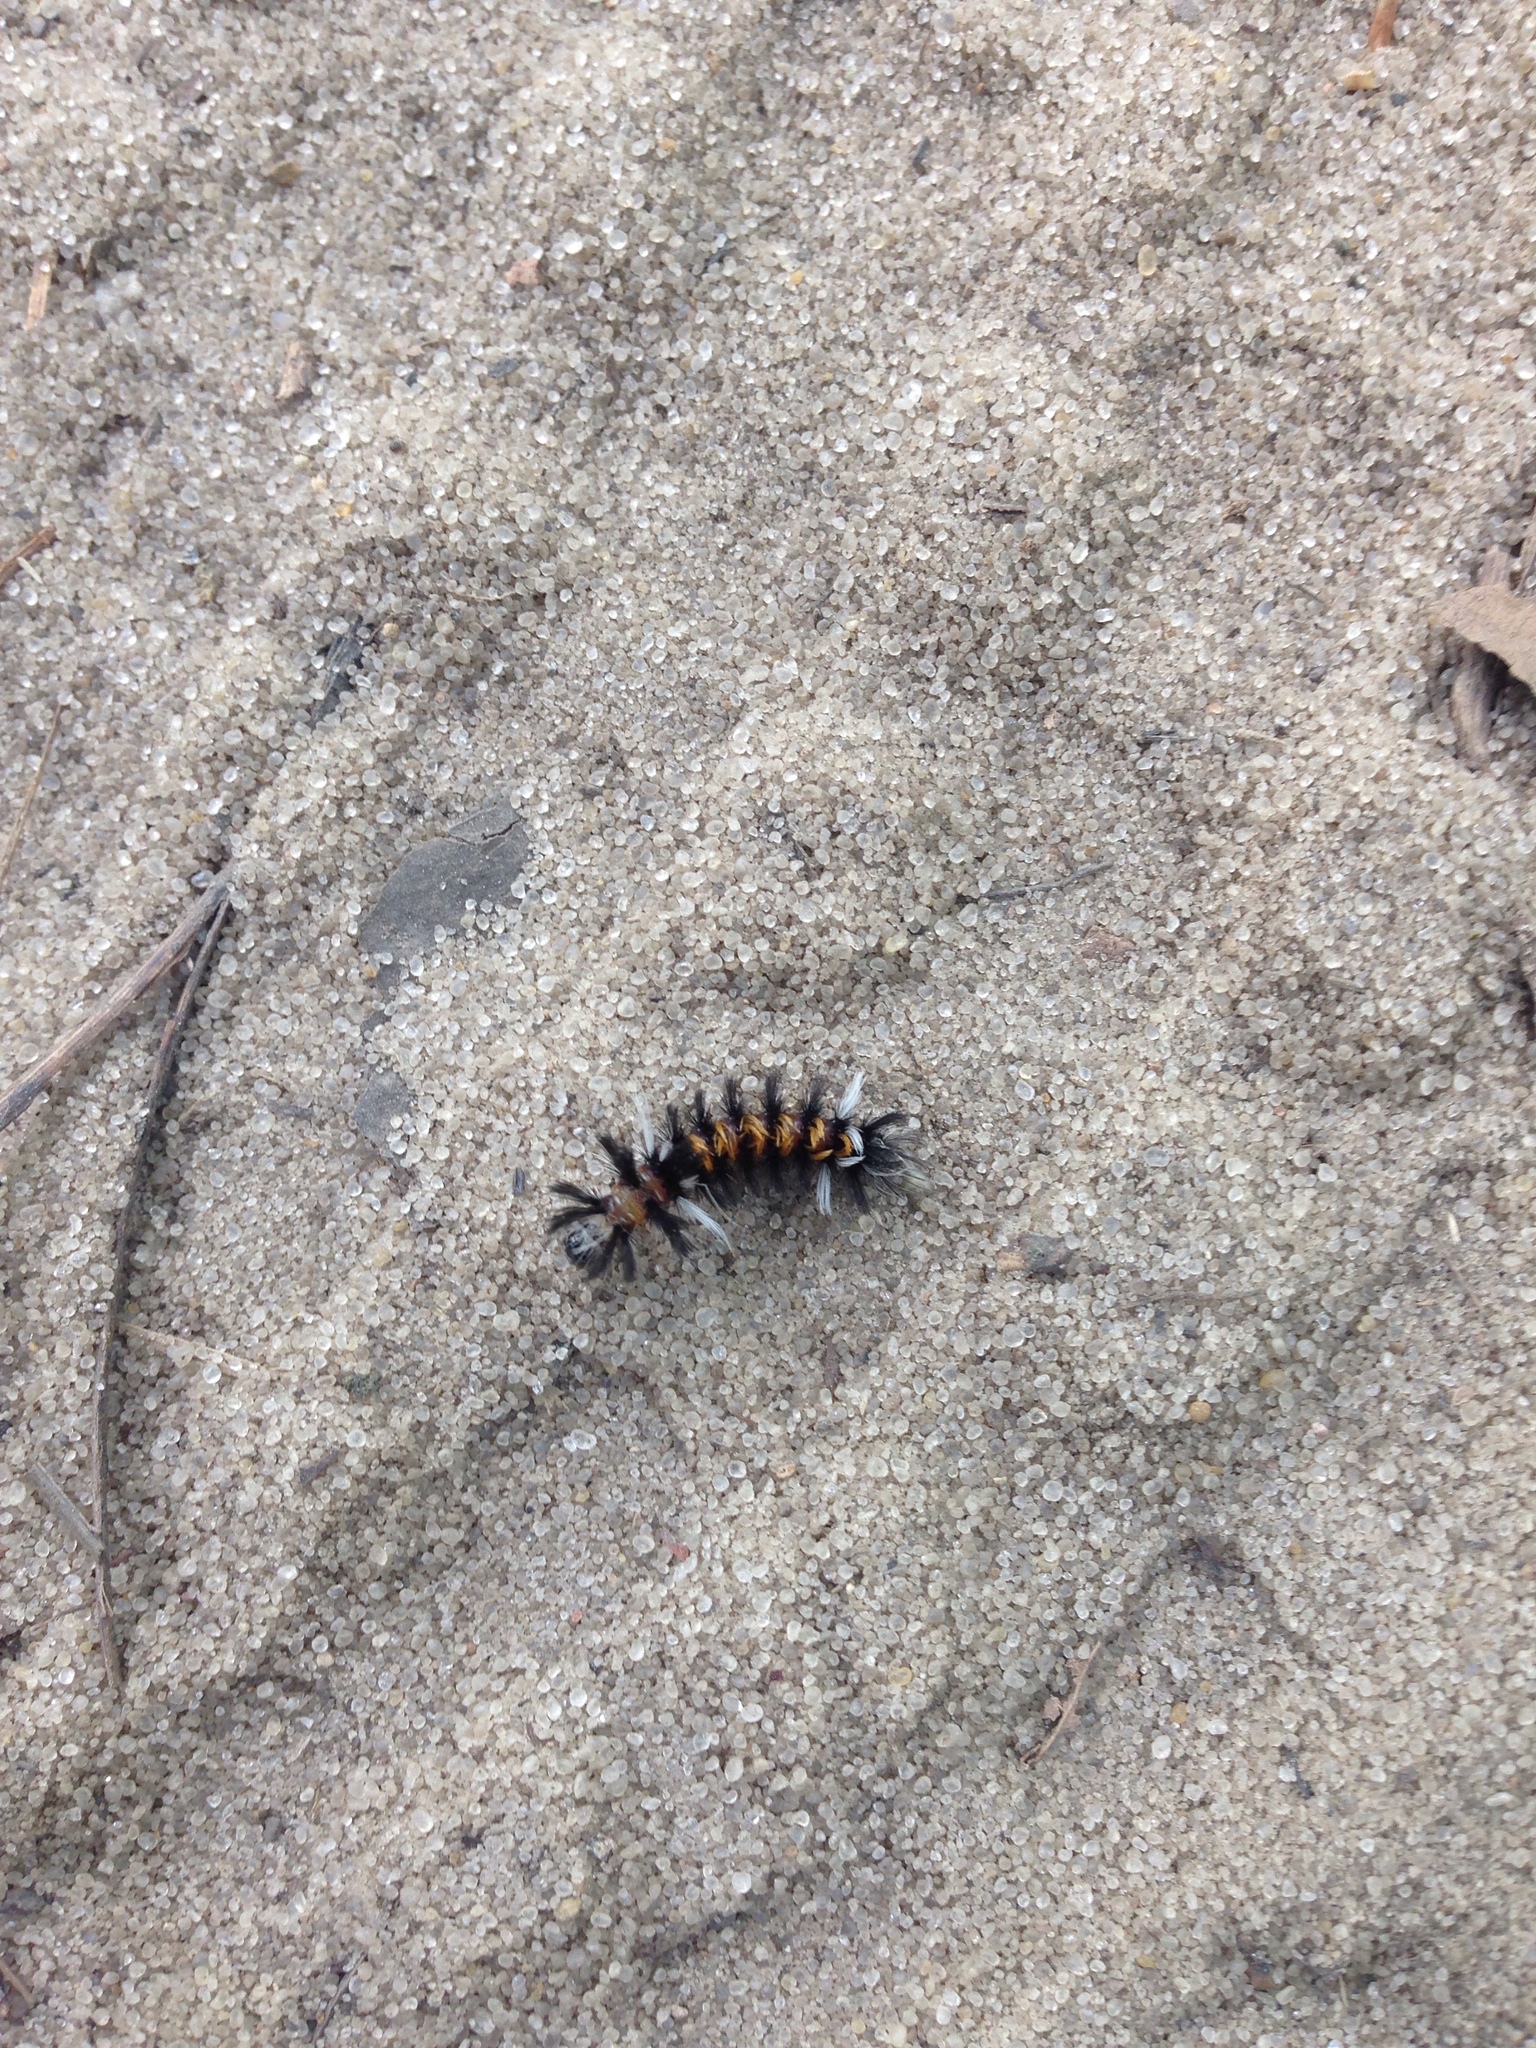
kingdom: Animalia
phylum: Arthropoda
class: Insecta
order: Lepidoptera
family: Erebidae
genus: Euchaetes
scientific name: Euchaetes egle
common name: Milkweed tussock moth
